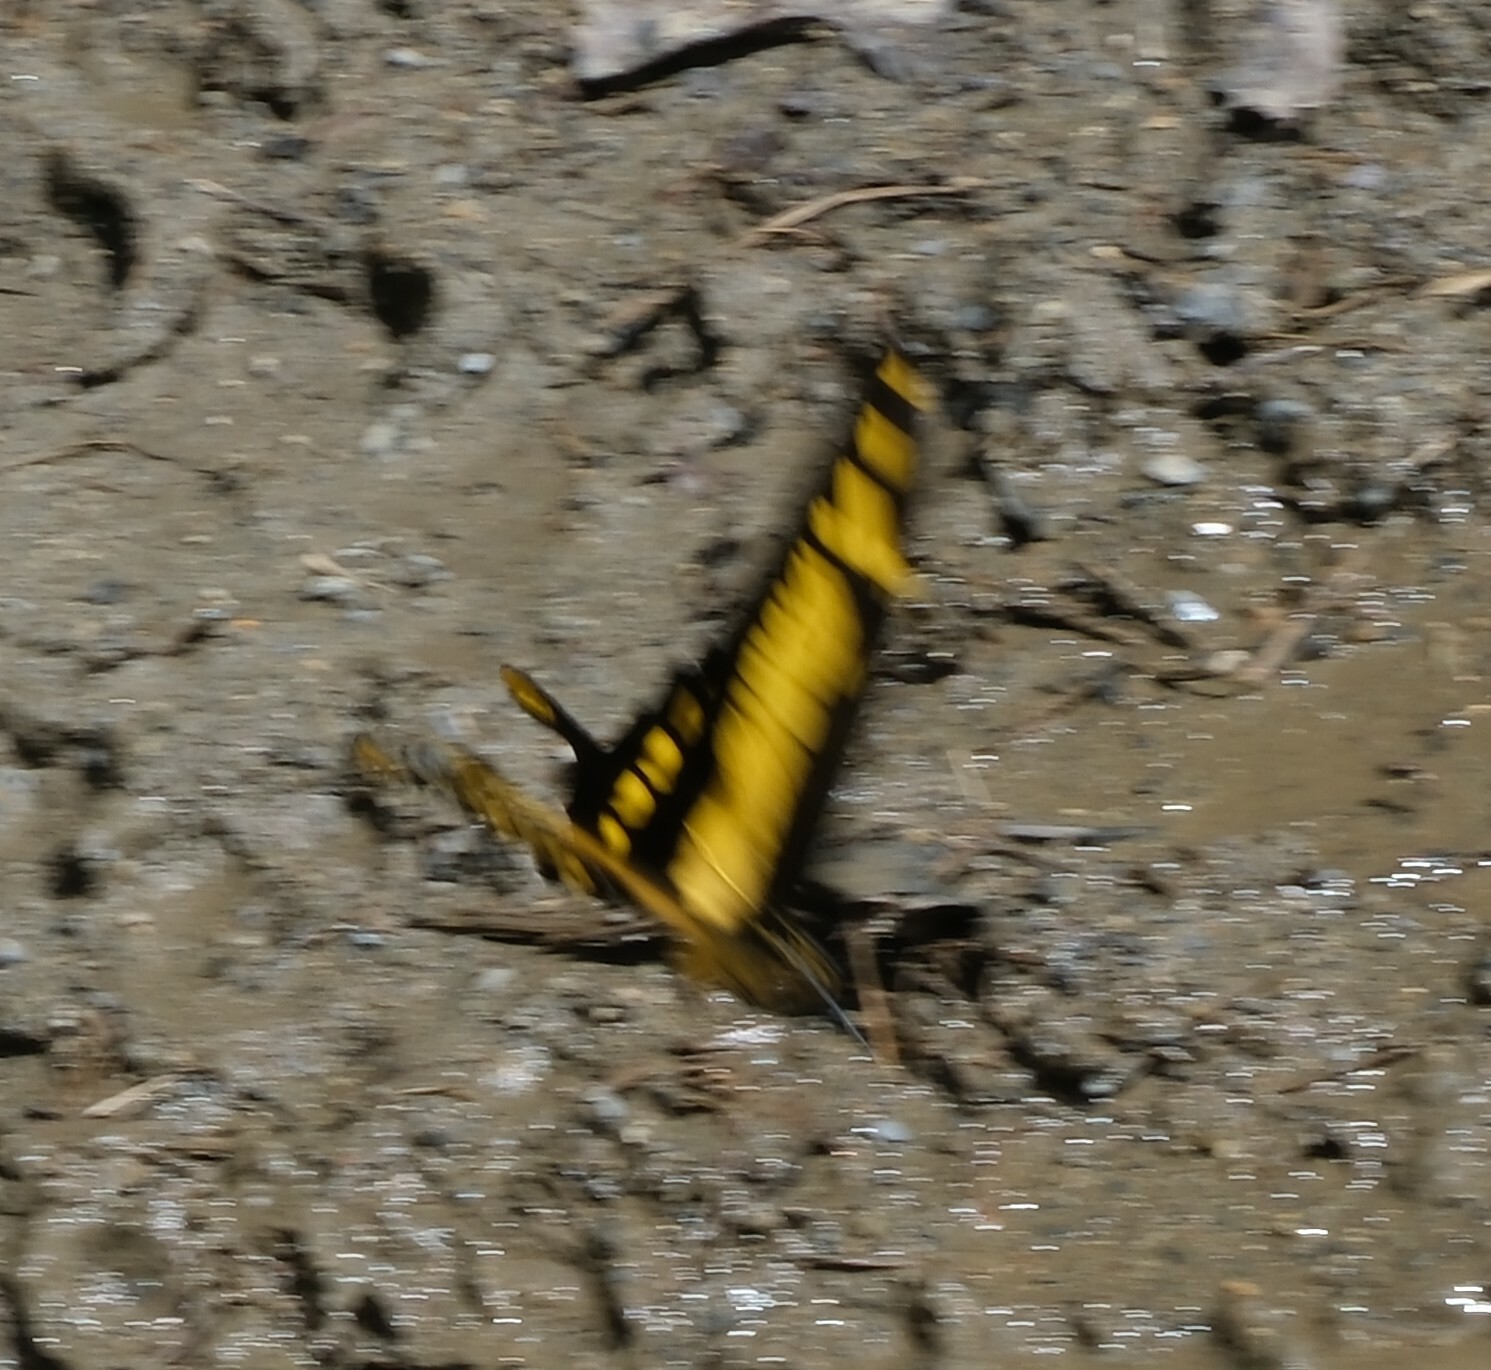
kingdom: Animalia
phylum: Arthropoda
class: Insecta
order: Lepidoptera
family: Papilionidae
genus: Papilio
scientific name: Papilio thoas
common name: King swallowtail
